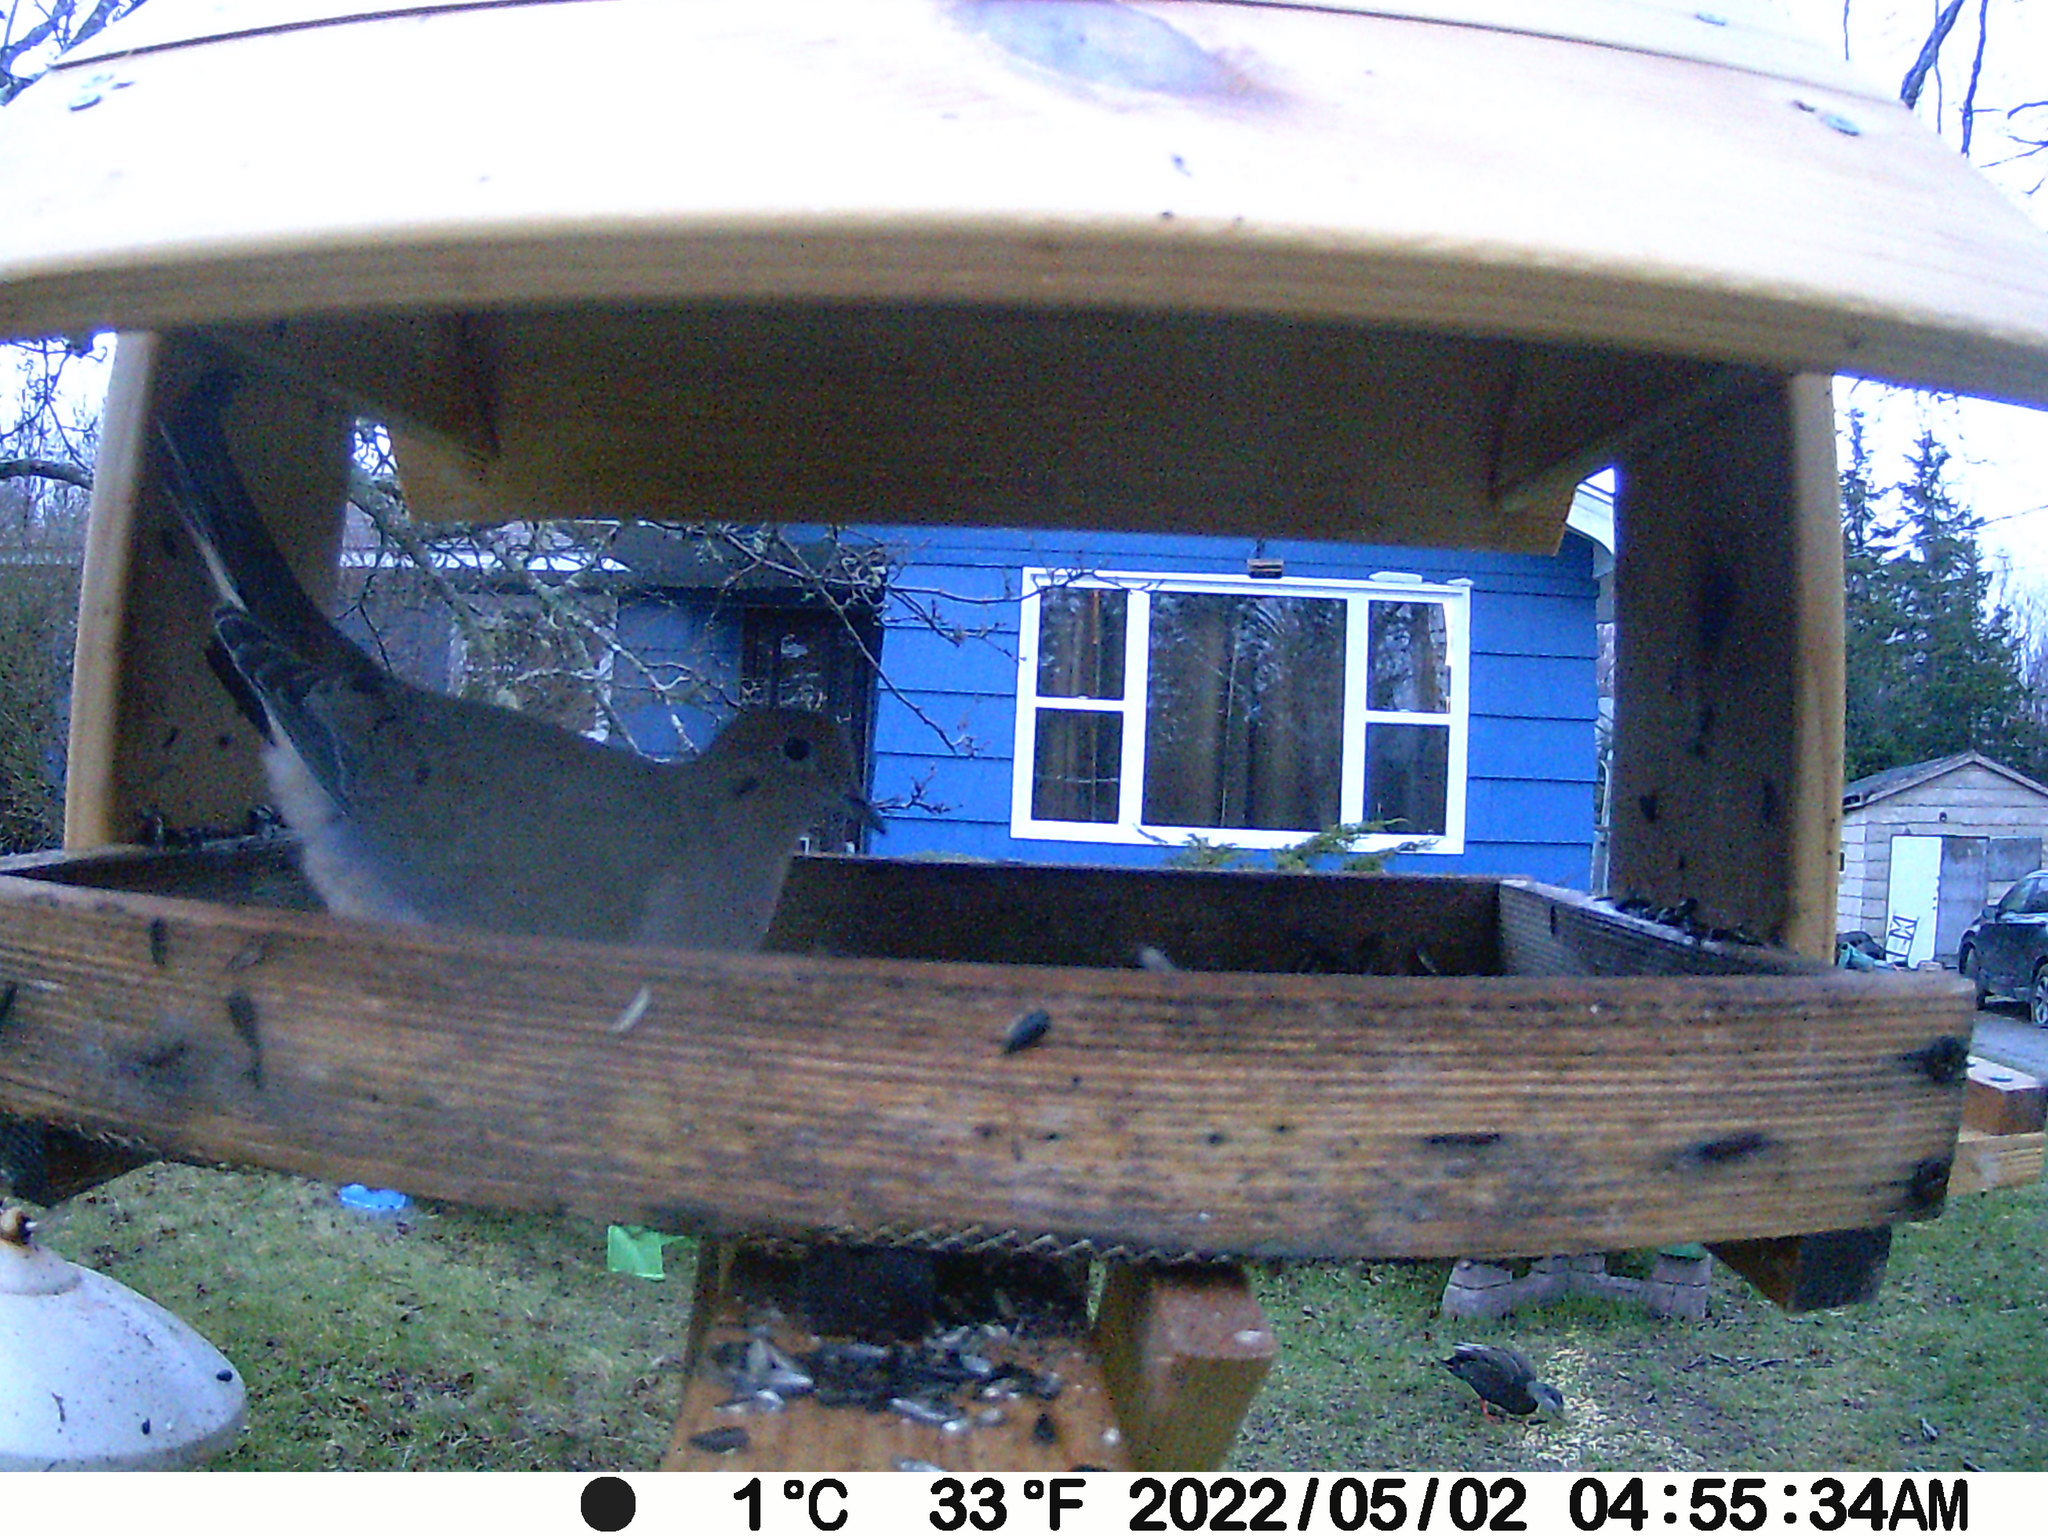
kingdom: Animalia
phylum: Chordata
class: Aves
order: Columbiformes
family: Columbidae
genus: Zenaida
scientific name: Zenaida macroura
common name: Mourning dove
